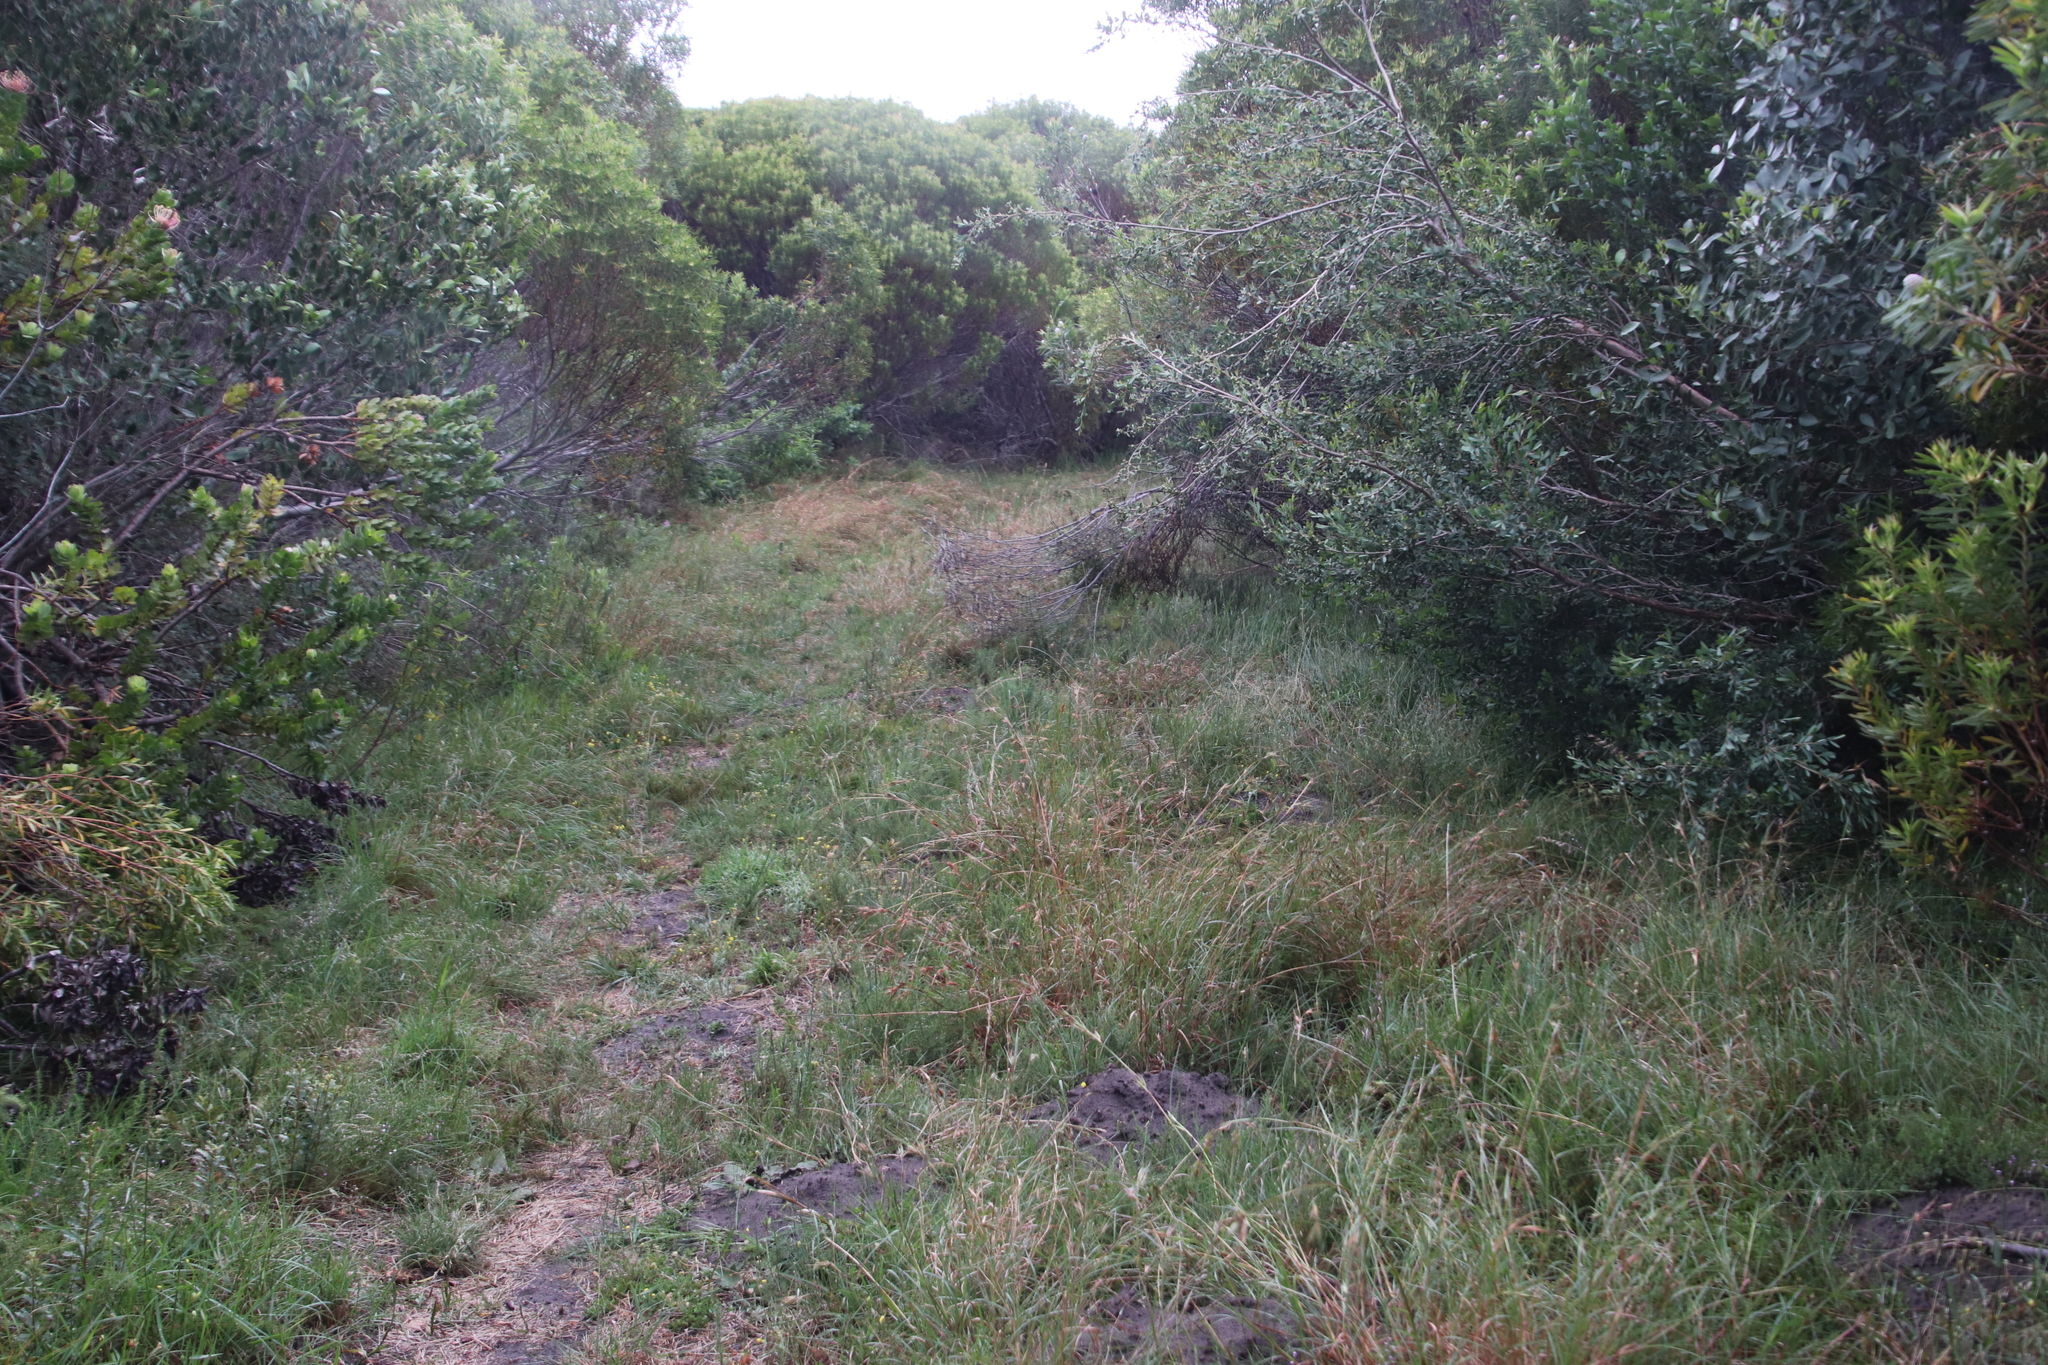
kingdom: Plantae
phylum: Tracheophyta
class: Liliopsida
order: Poales
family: Poaceae
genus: Themeda
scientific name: Themeda triandra
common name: Kangaroo grass
